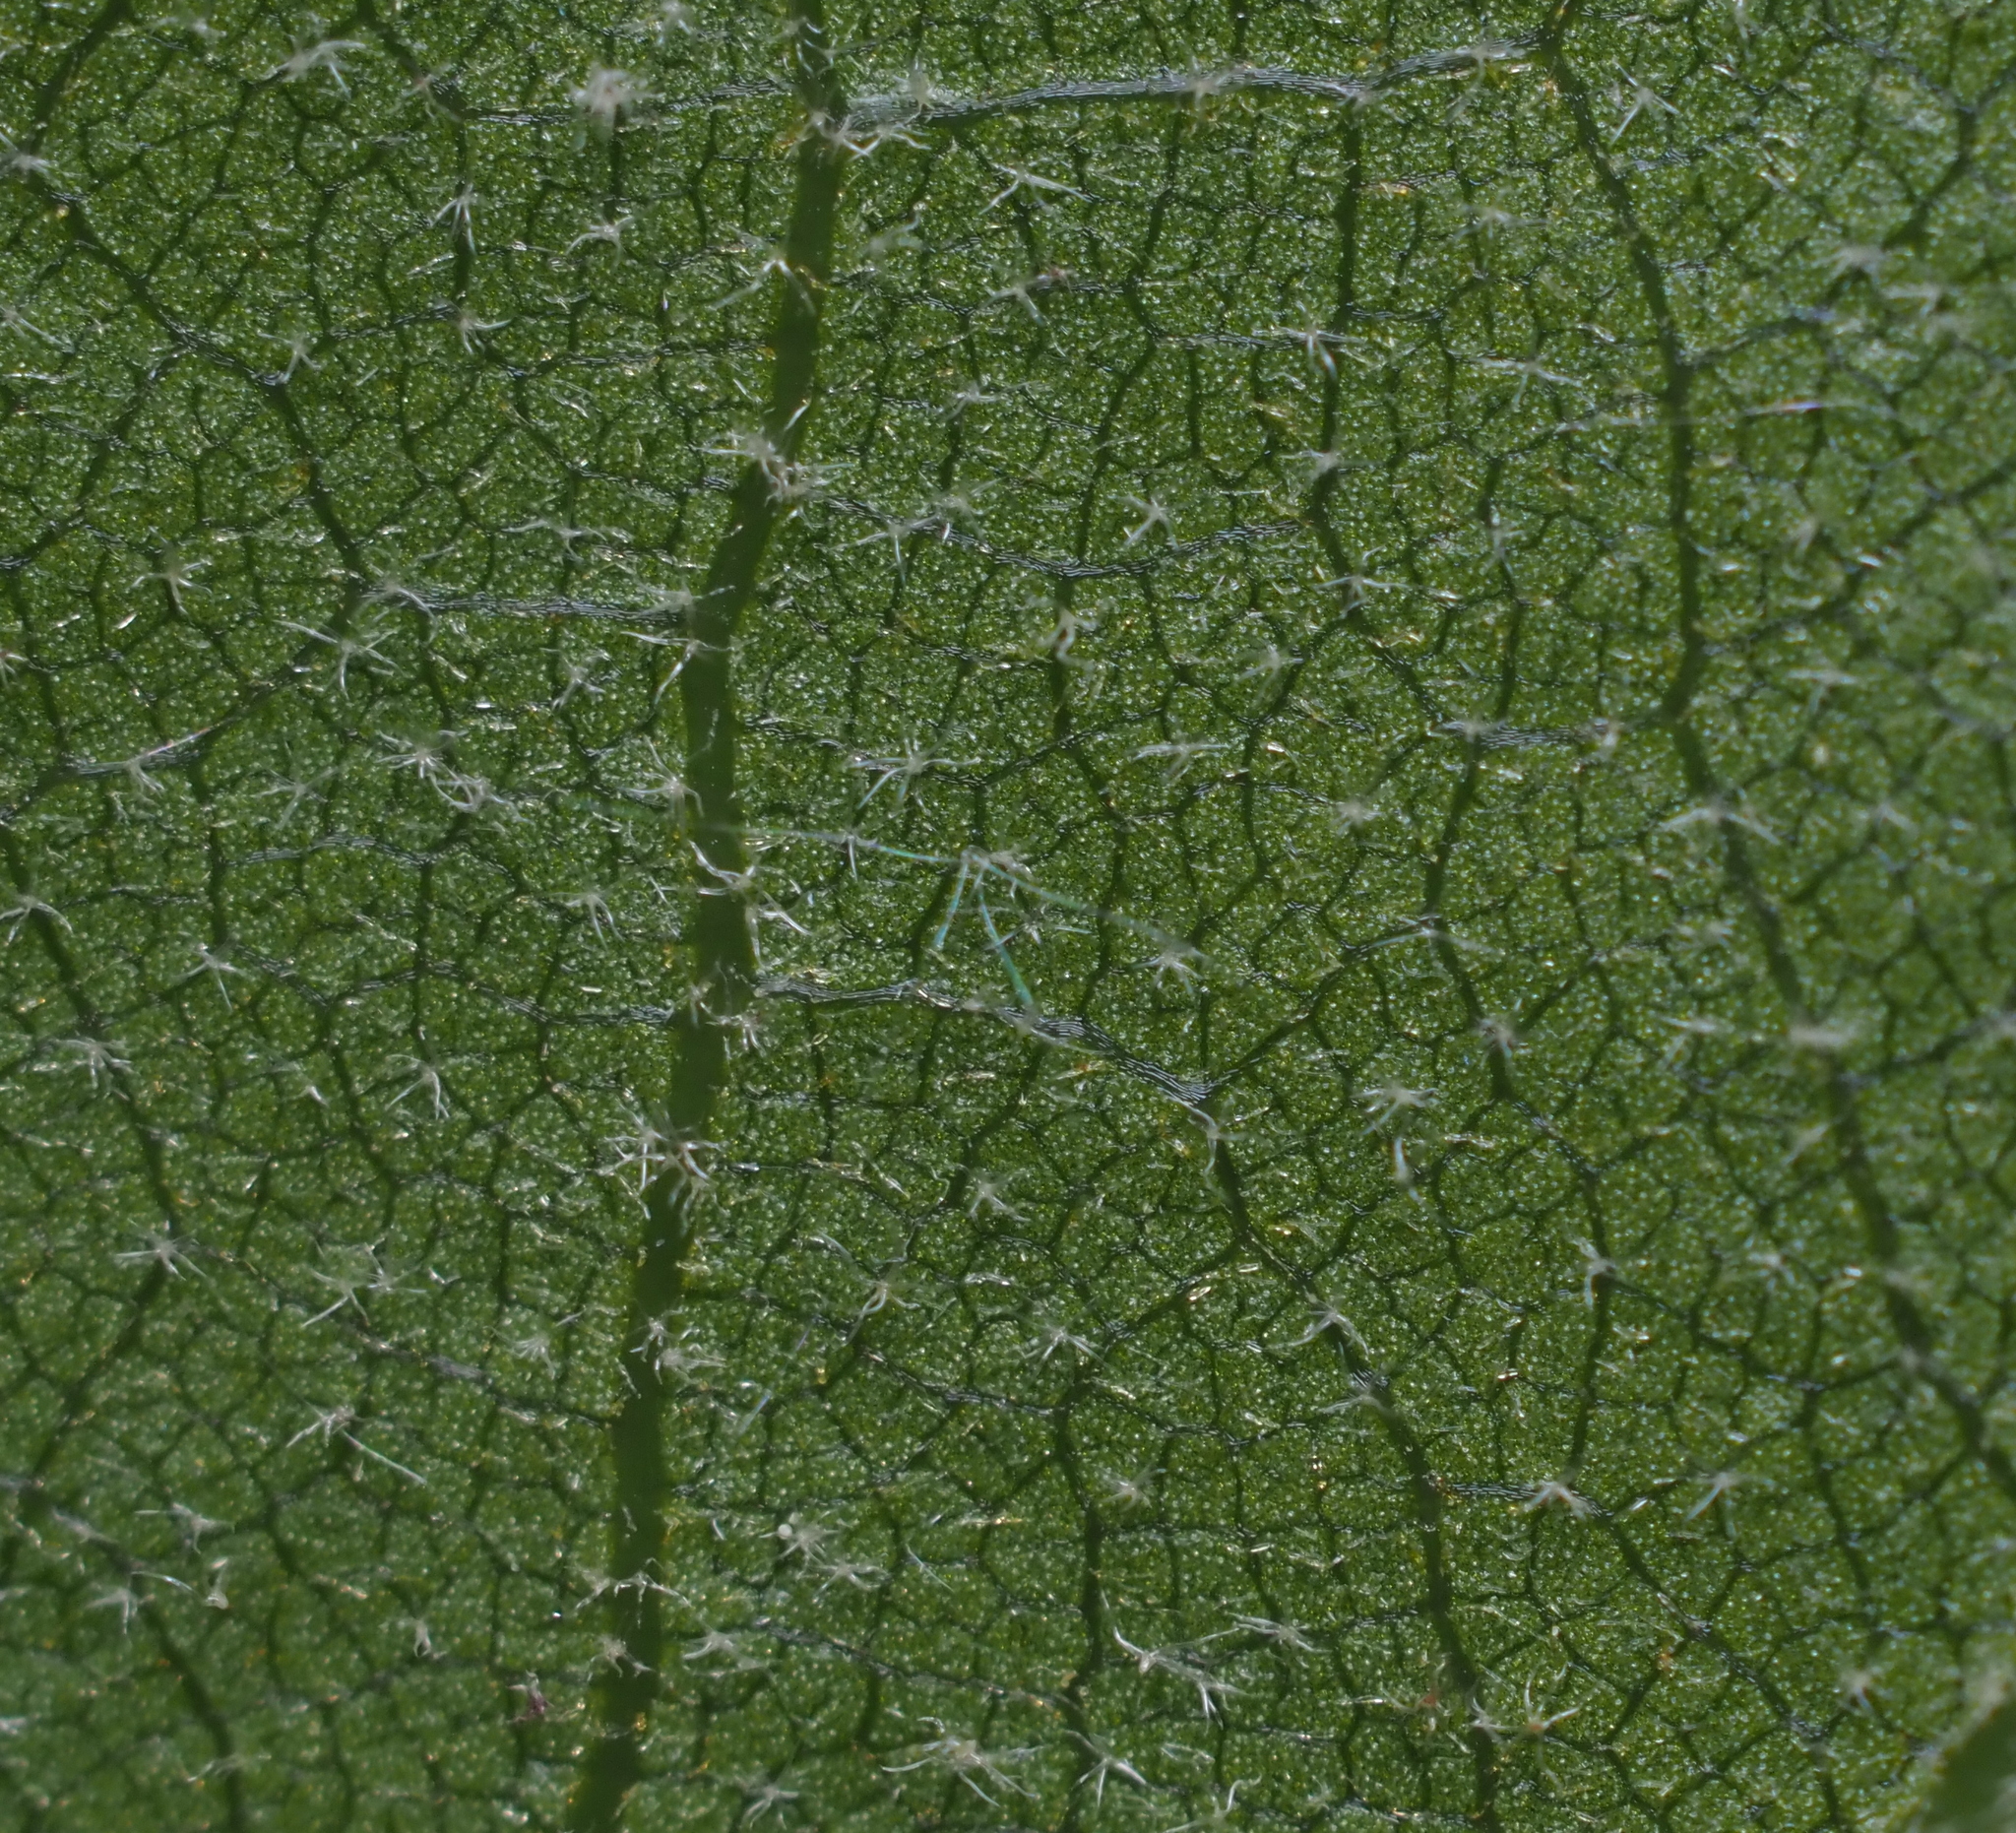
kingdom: Plantae
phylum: Tracheophyta
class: Magnoliopsida
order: Fagales
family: Fagaceae
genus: Quercus
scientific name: Quercus velutina
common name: Black oak
